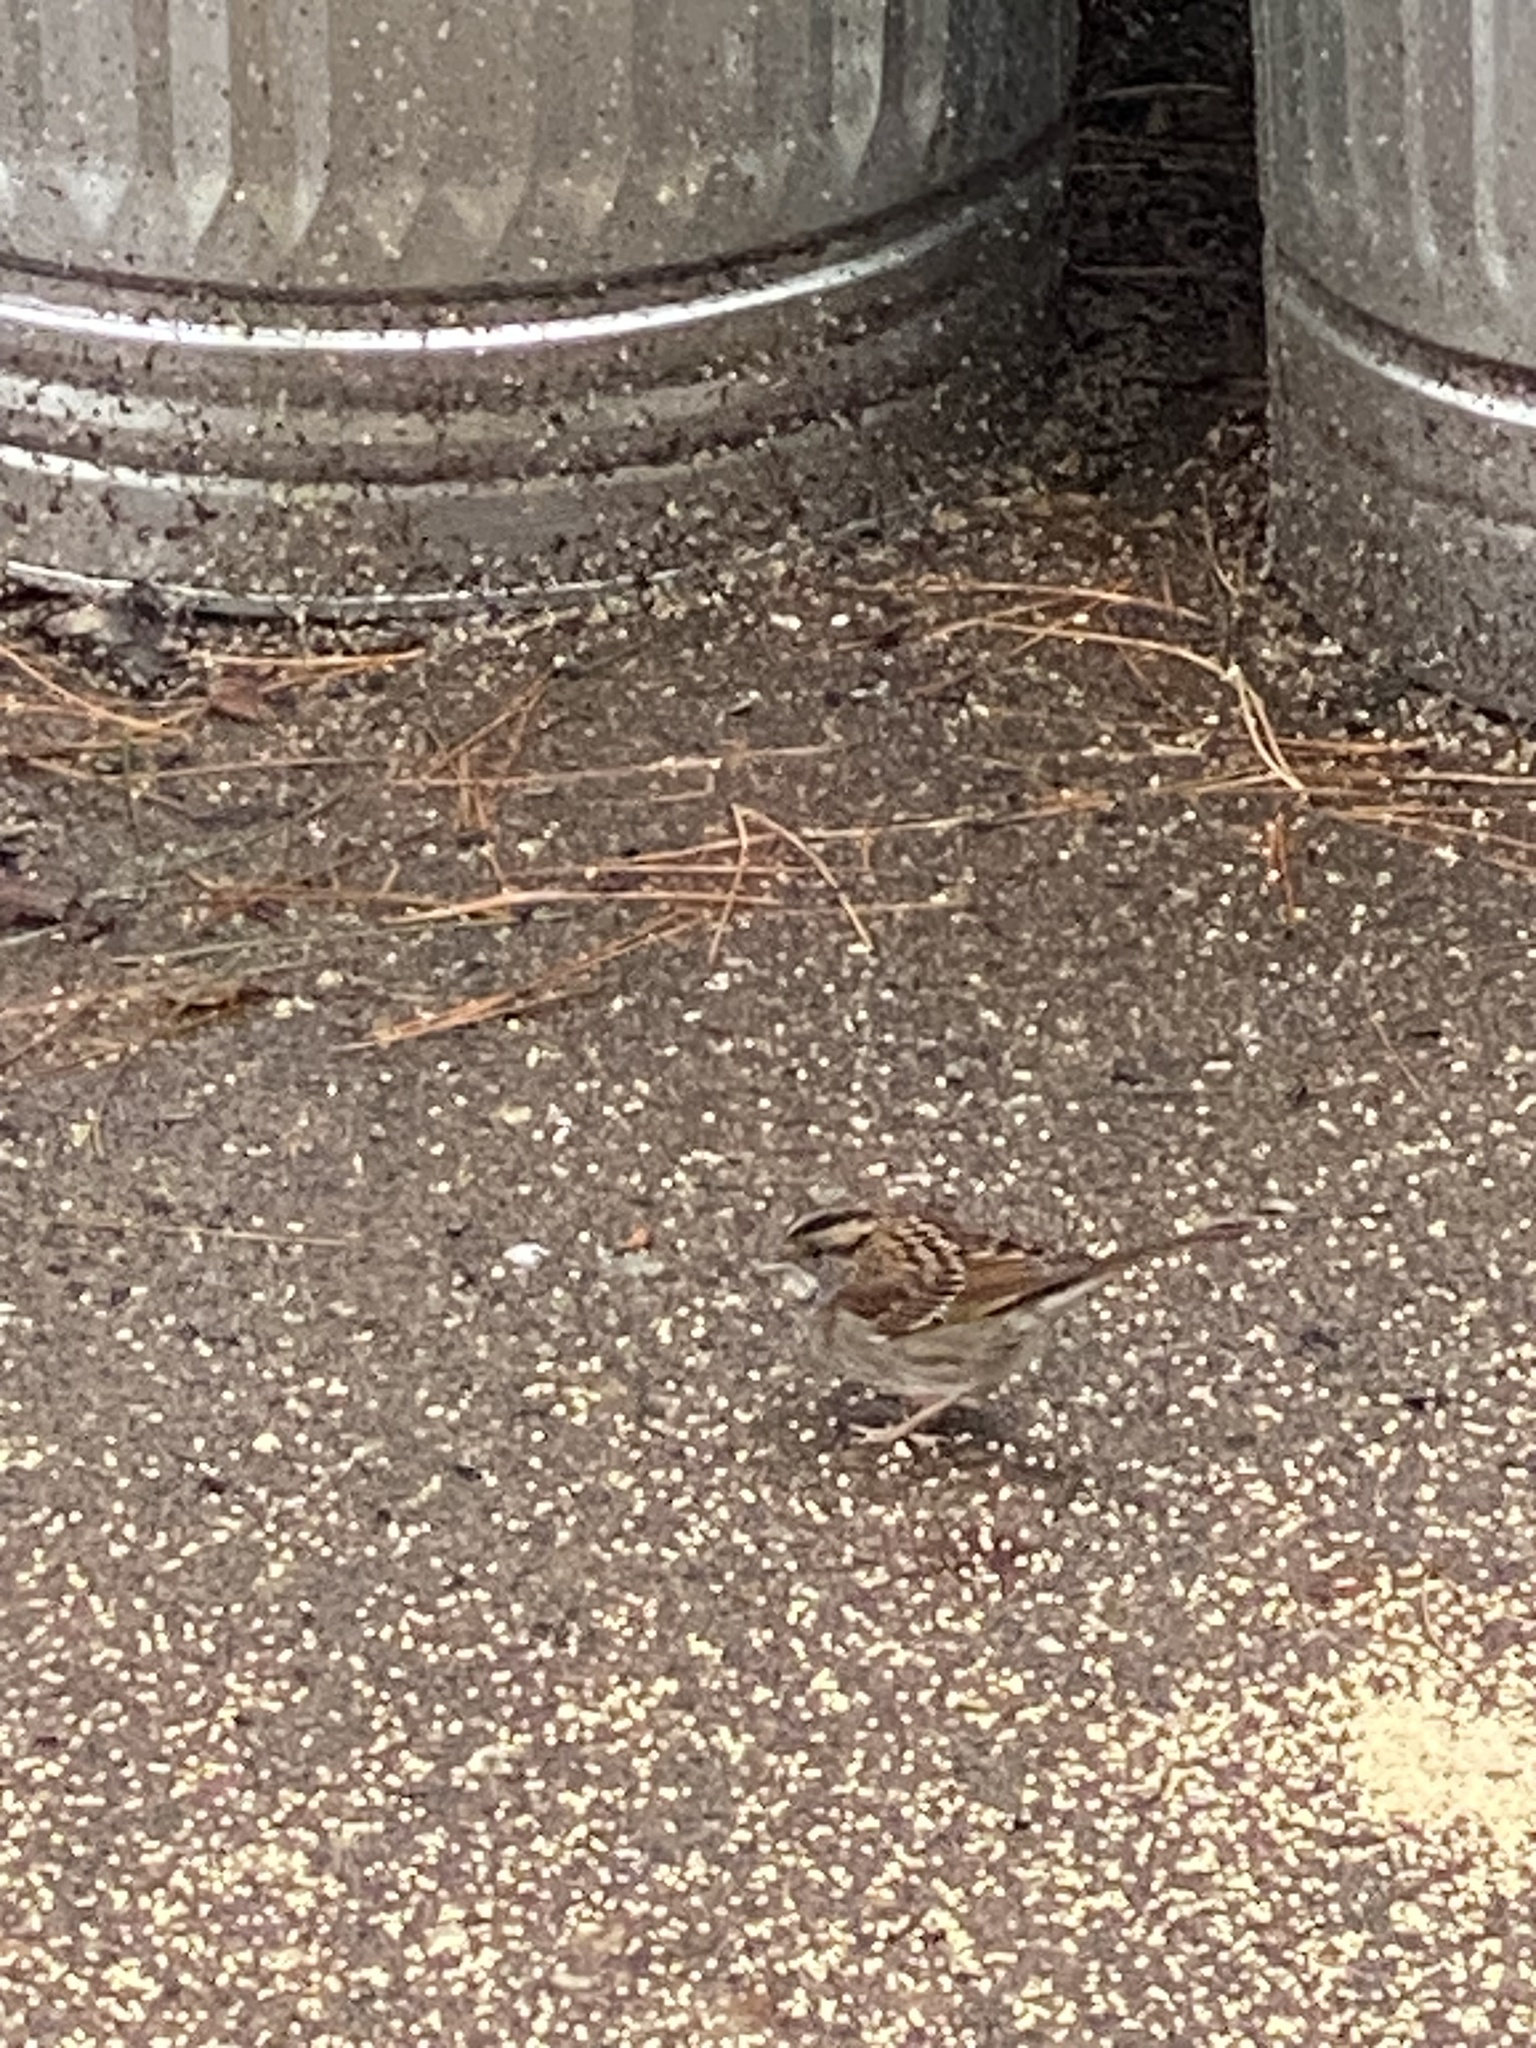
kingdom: Animalia
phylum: Chordata
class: Aves
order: Passeriformes
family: Passerellidae
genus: Zonotrichia
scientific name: Zonotrichia albicollis
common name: White-throated sparrow
